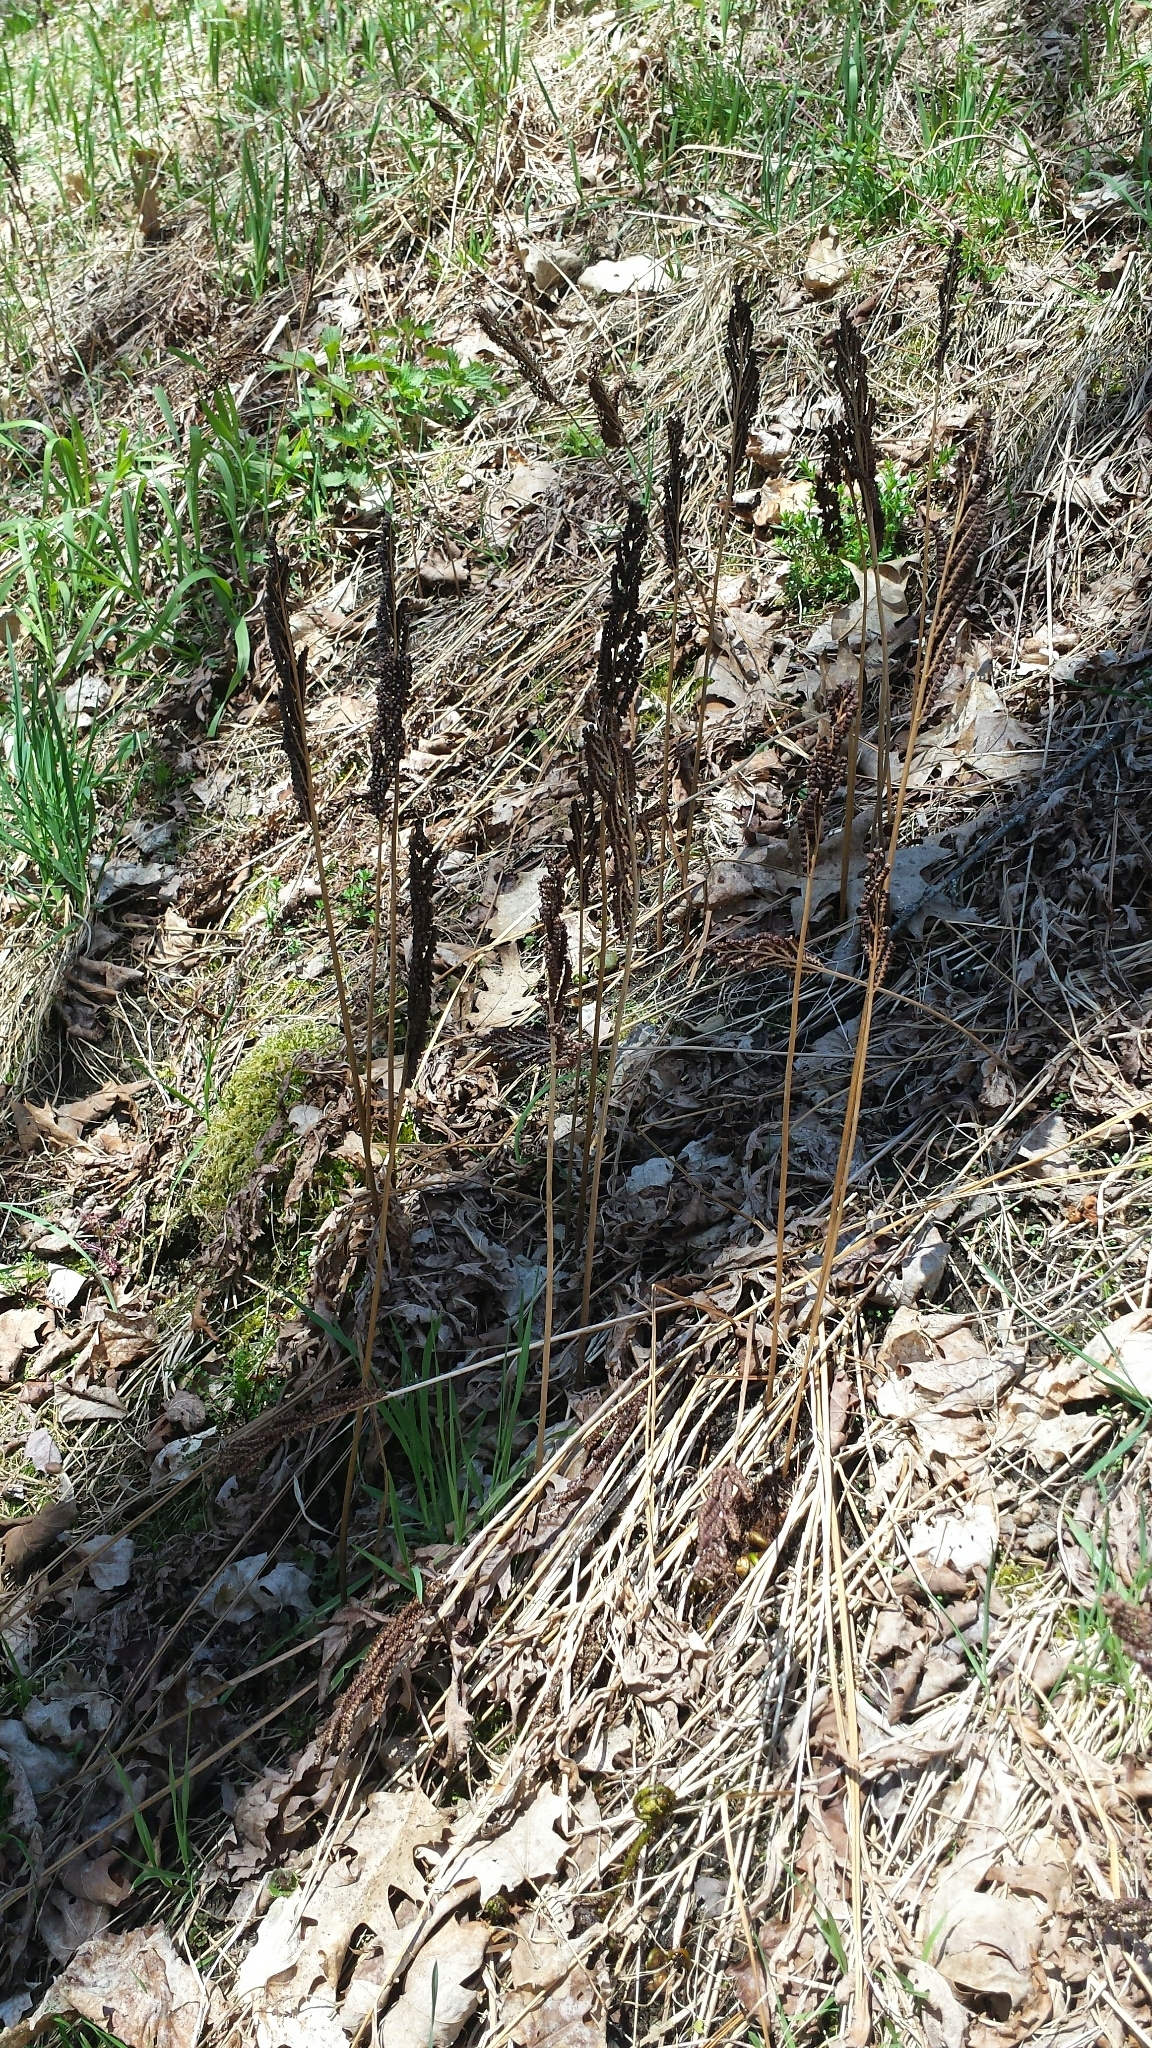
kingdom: Plantae
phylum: Tracheophyta
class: Polypodiopsida
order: Polypodiales
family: Onocleaceae
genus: Onoclea
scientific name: Onoclea sensibilis
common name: Sensitive fern
